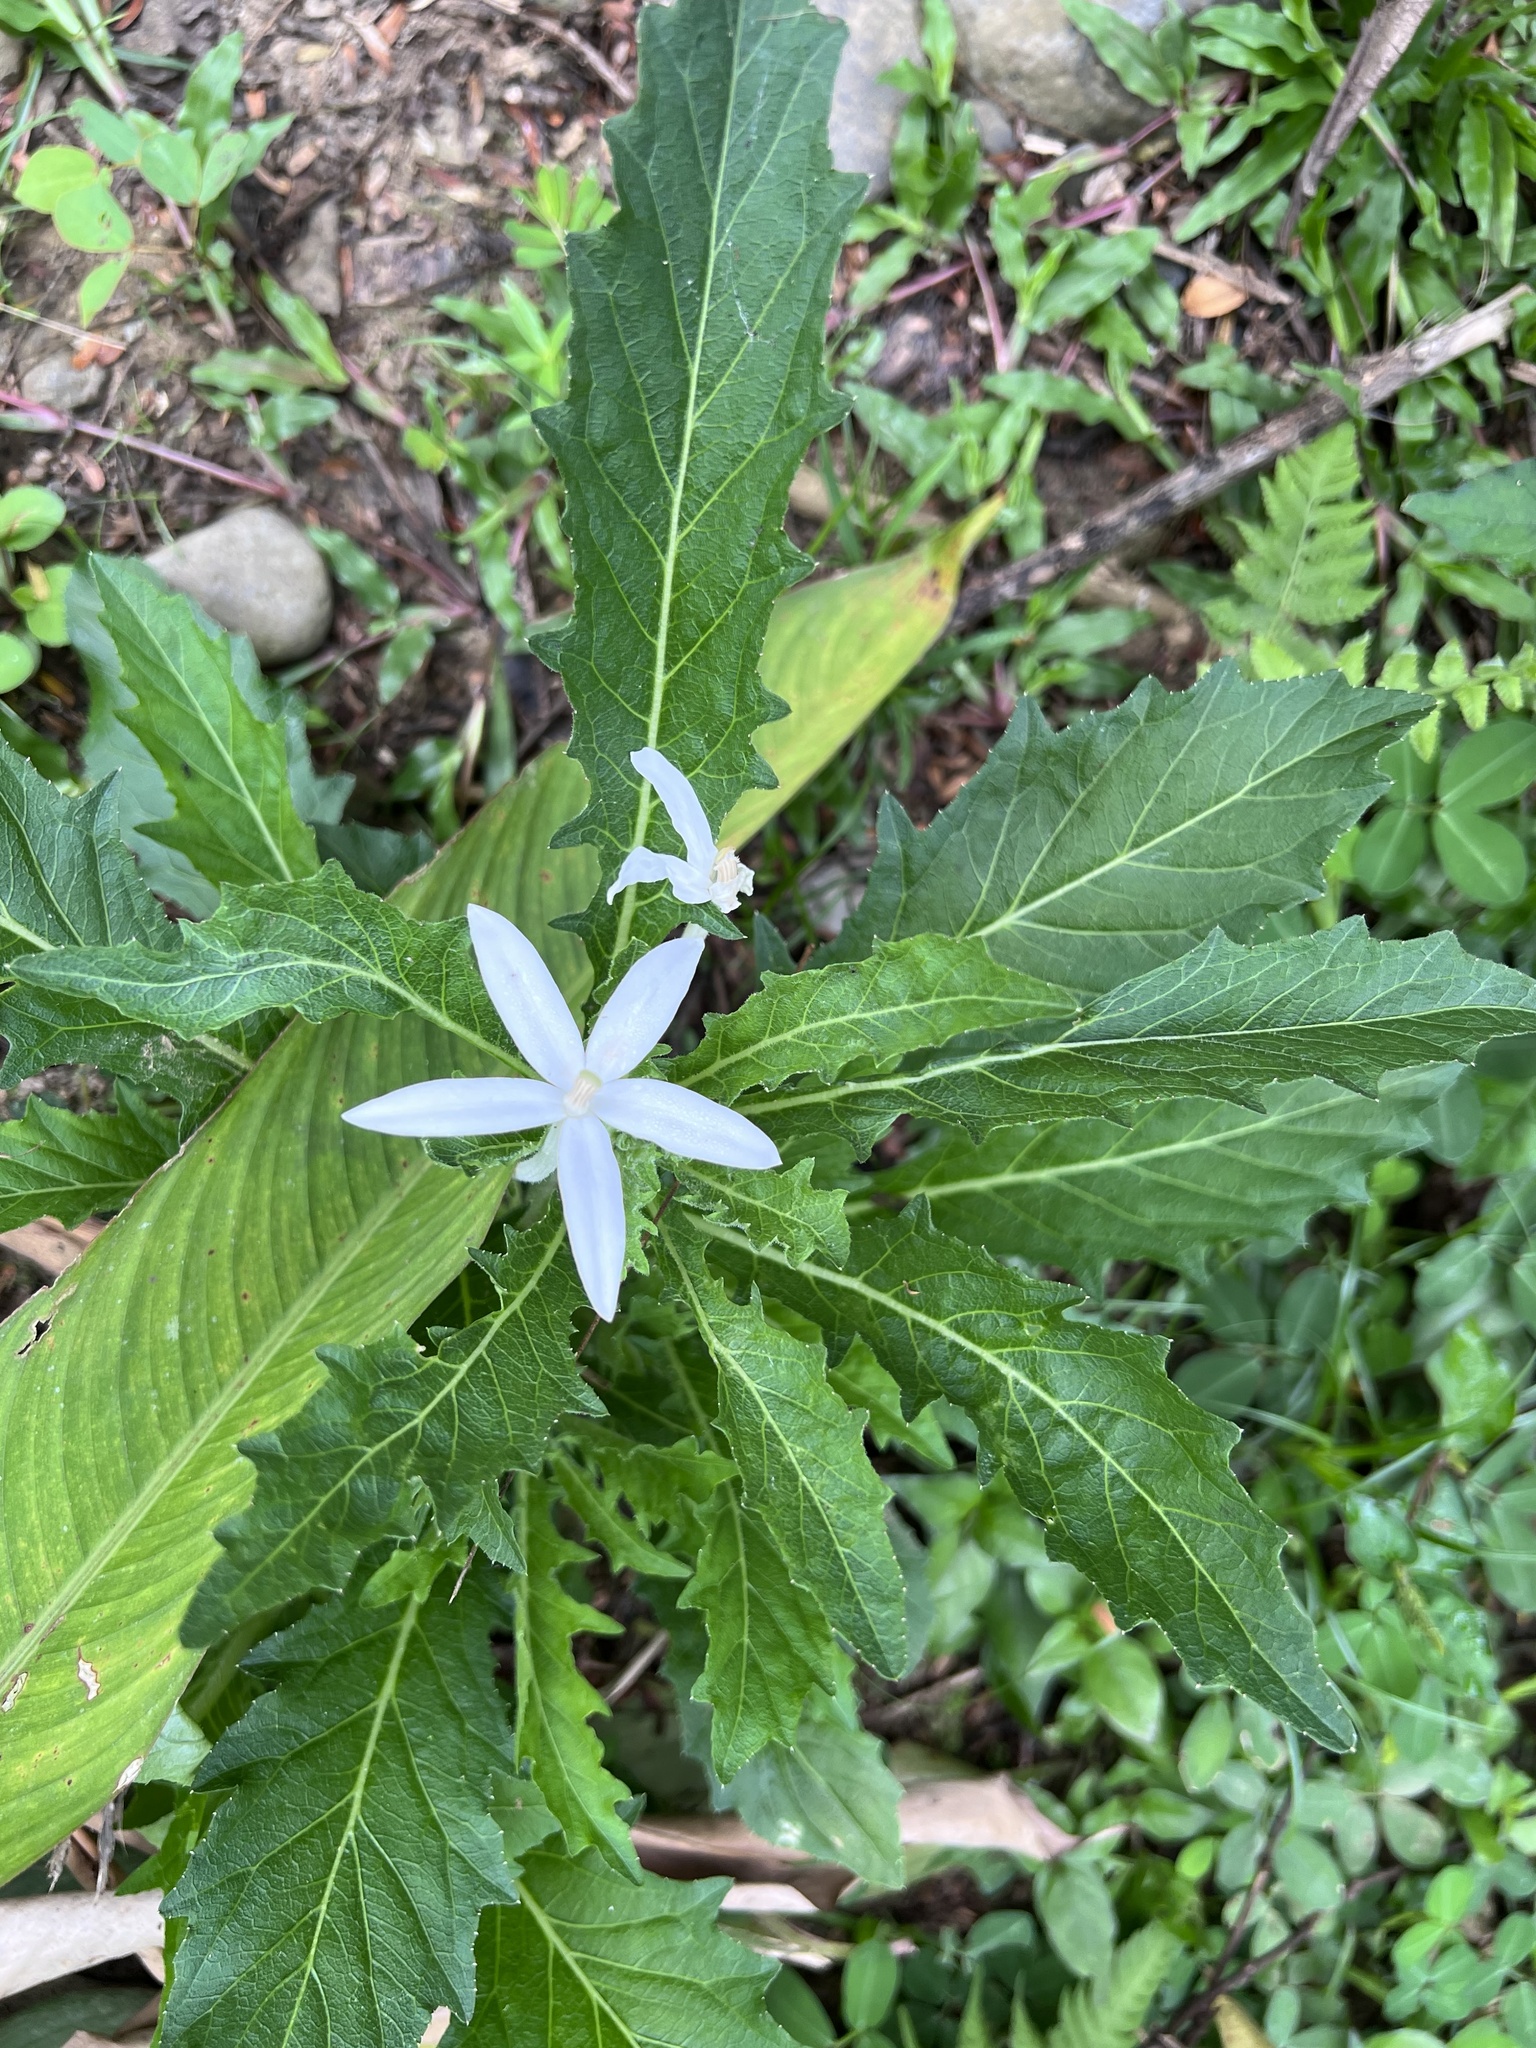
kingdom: Plantae
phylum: Tracheophyta
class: Magnoliopsida
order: Asterales
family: Campanulaceae
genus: Hippobroma
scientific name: Hippobroma longiflora
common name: Madamfate
